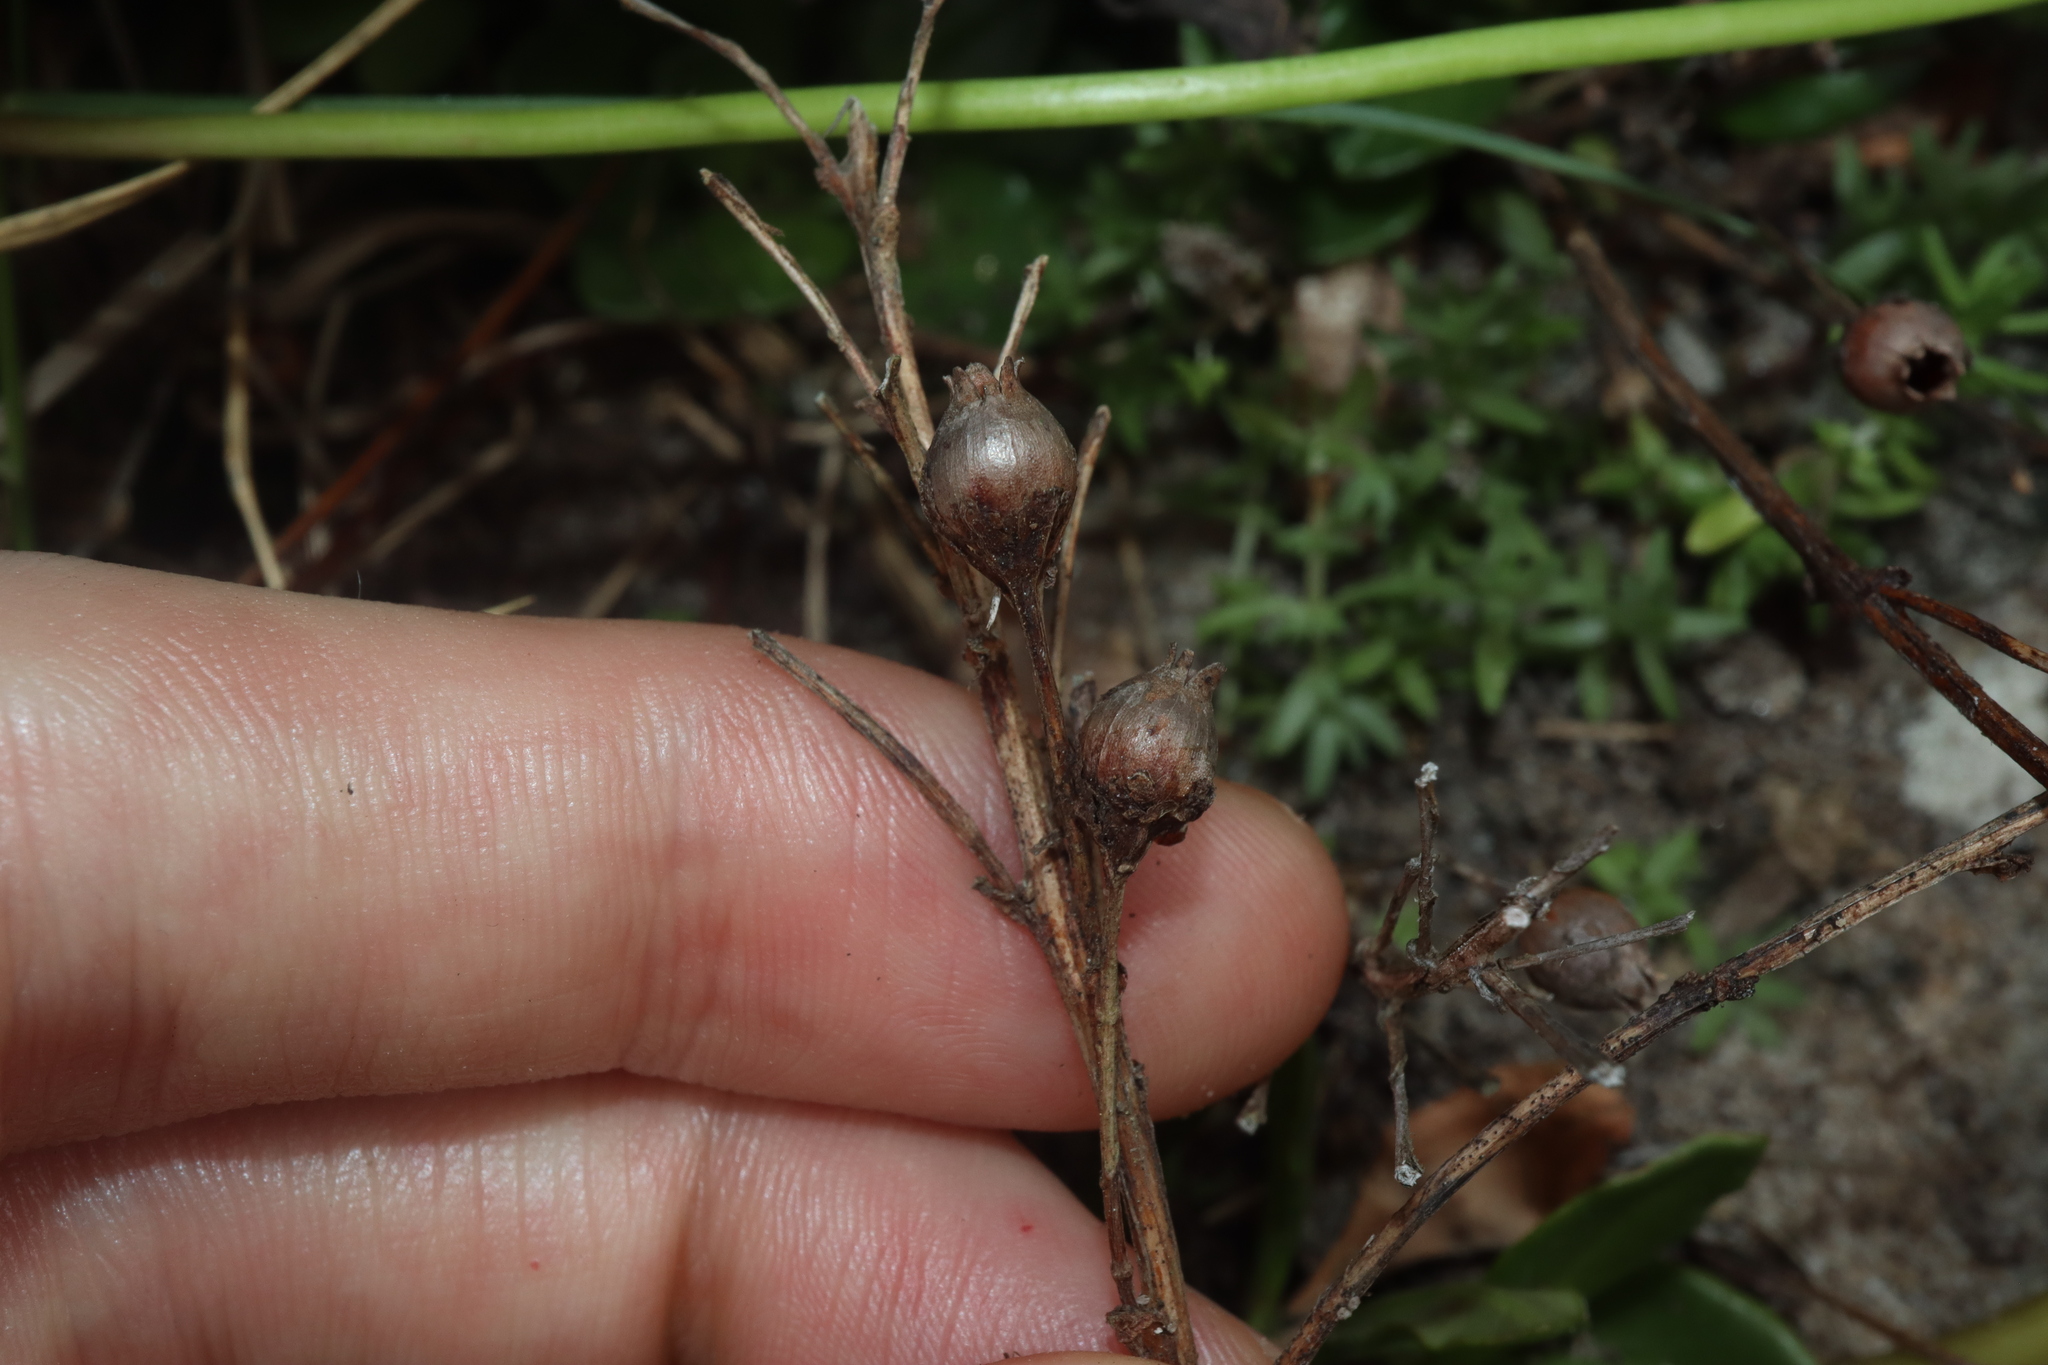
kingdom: Plantae
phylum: Tracheophyta
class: Magnoliopsida
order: Ericales
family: Primulaceae
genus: Lysimachia
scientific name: Lysimachia mauritiana
